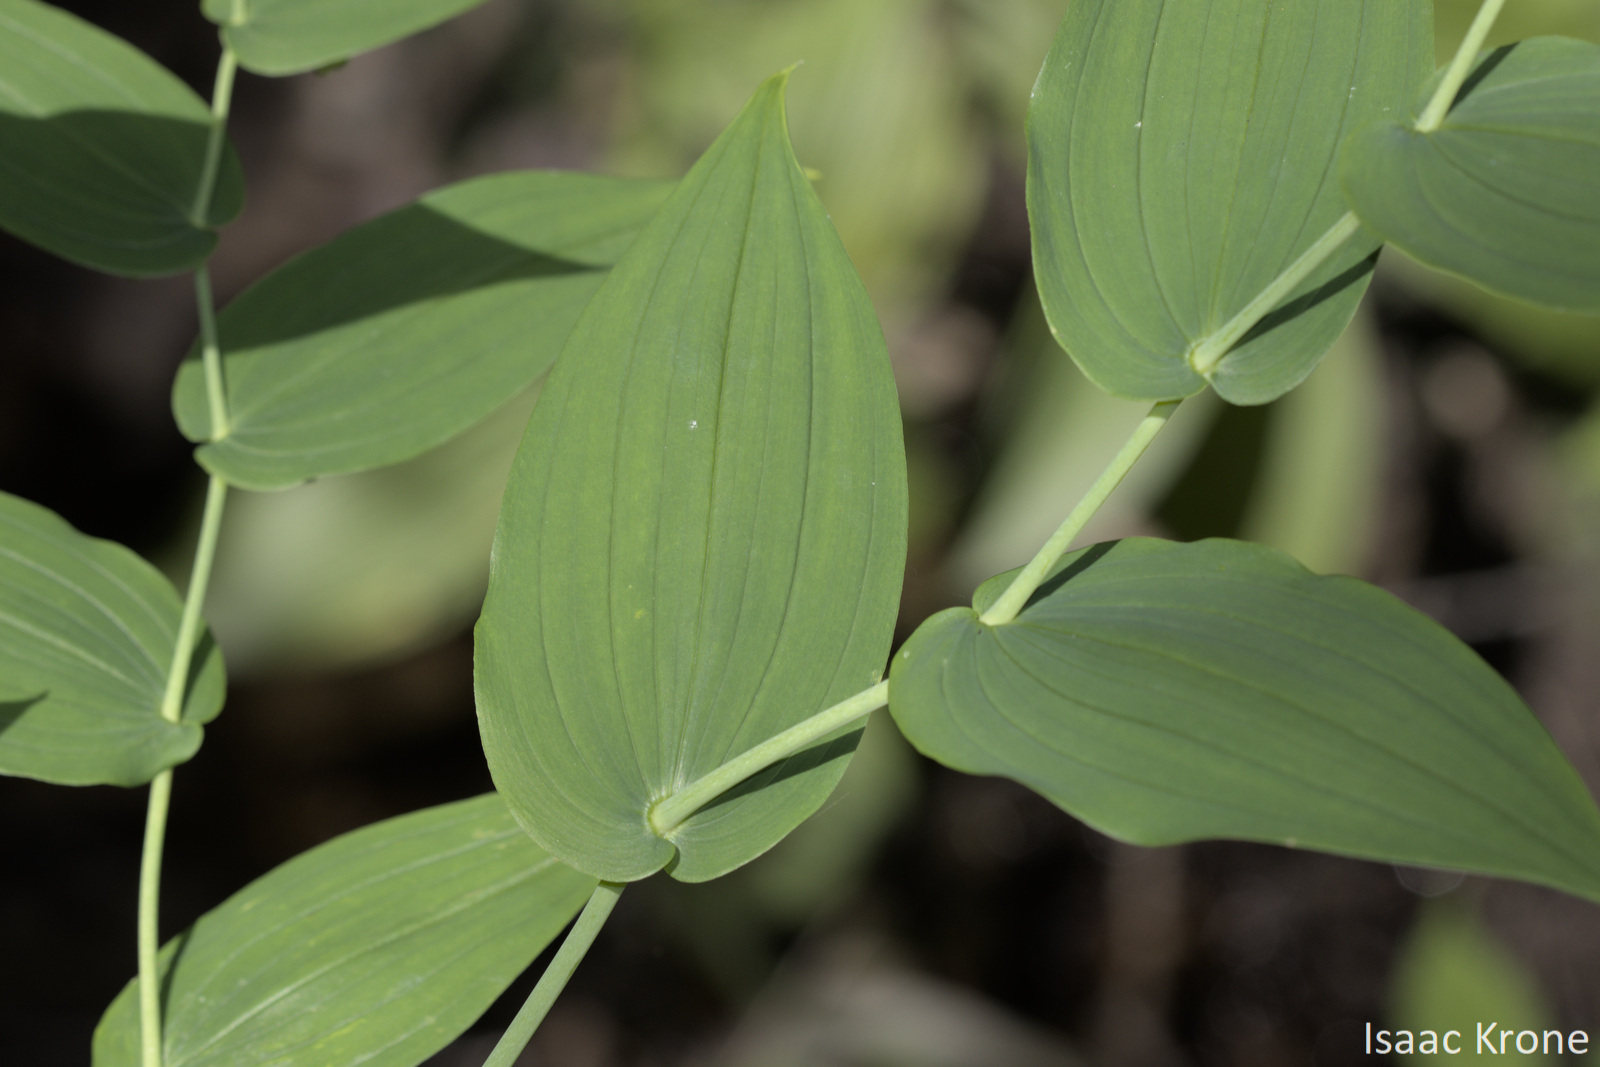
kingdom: Plantae
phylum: Tracheophyta
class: Liliopsida
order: Liliales
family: Liliaceae
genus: Streptopus
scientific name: Streptopus amplexifolius
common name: Clasp twisted stalk
